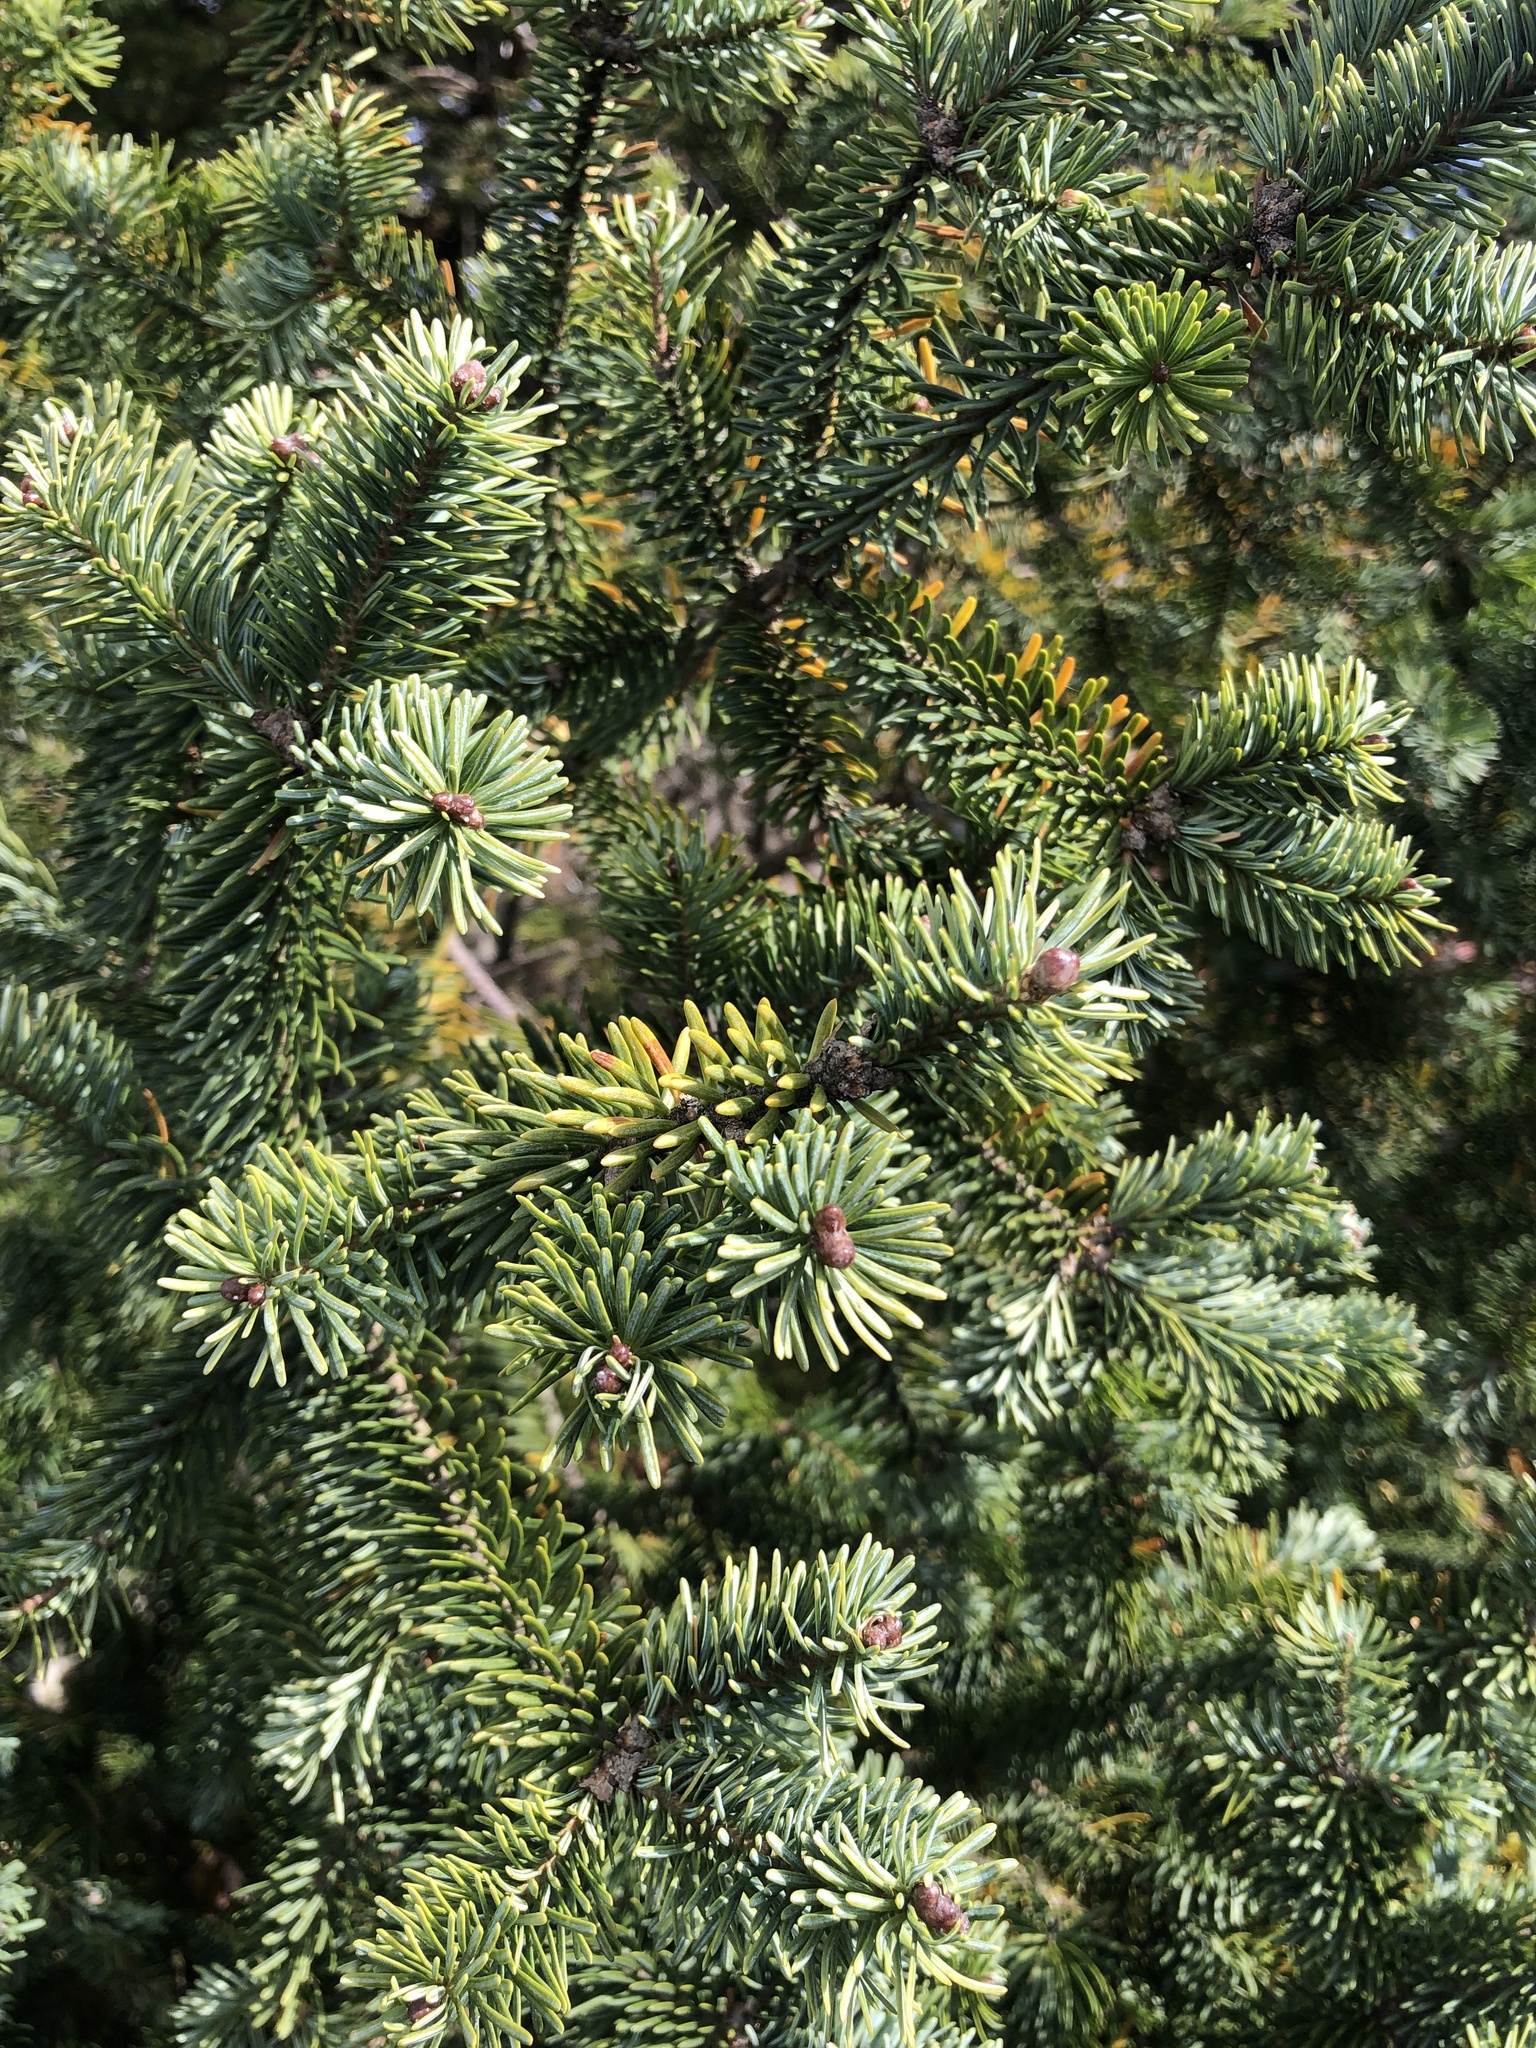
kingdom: Plantae
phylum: Tracheophyta
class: Pinopsida
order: Pinales
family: Pinaceae
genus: Abies
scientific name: Abies balsamea
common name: Balsam fir
